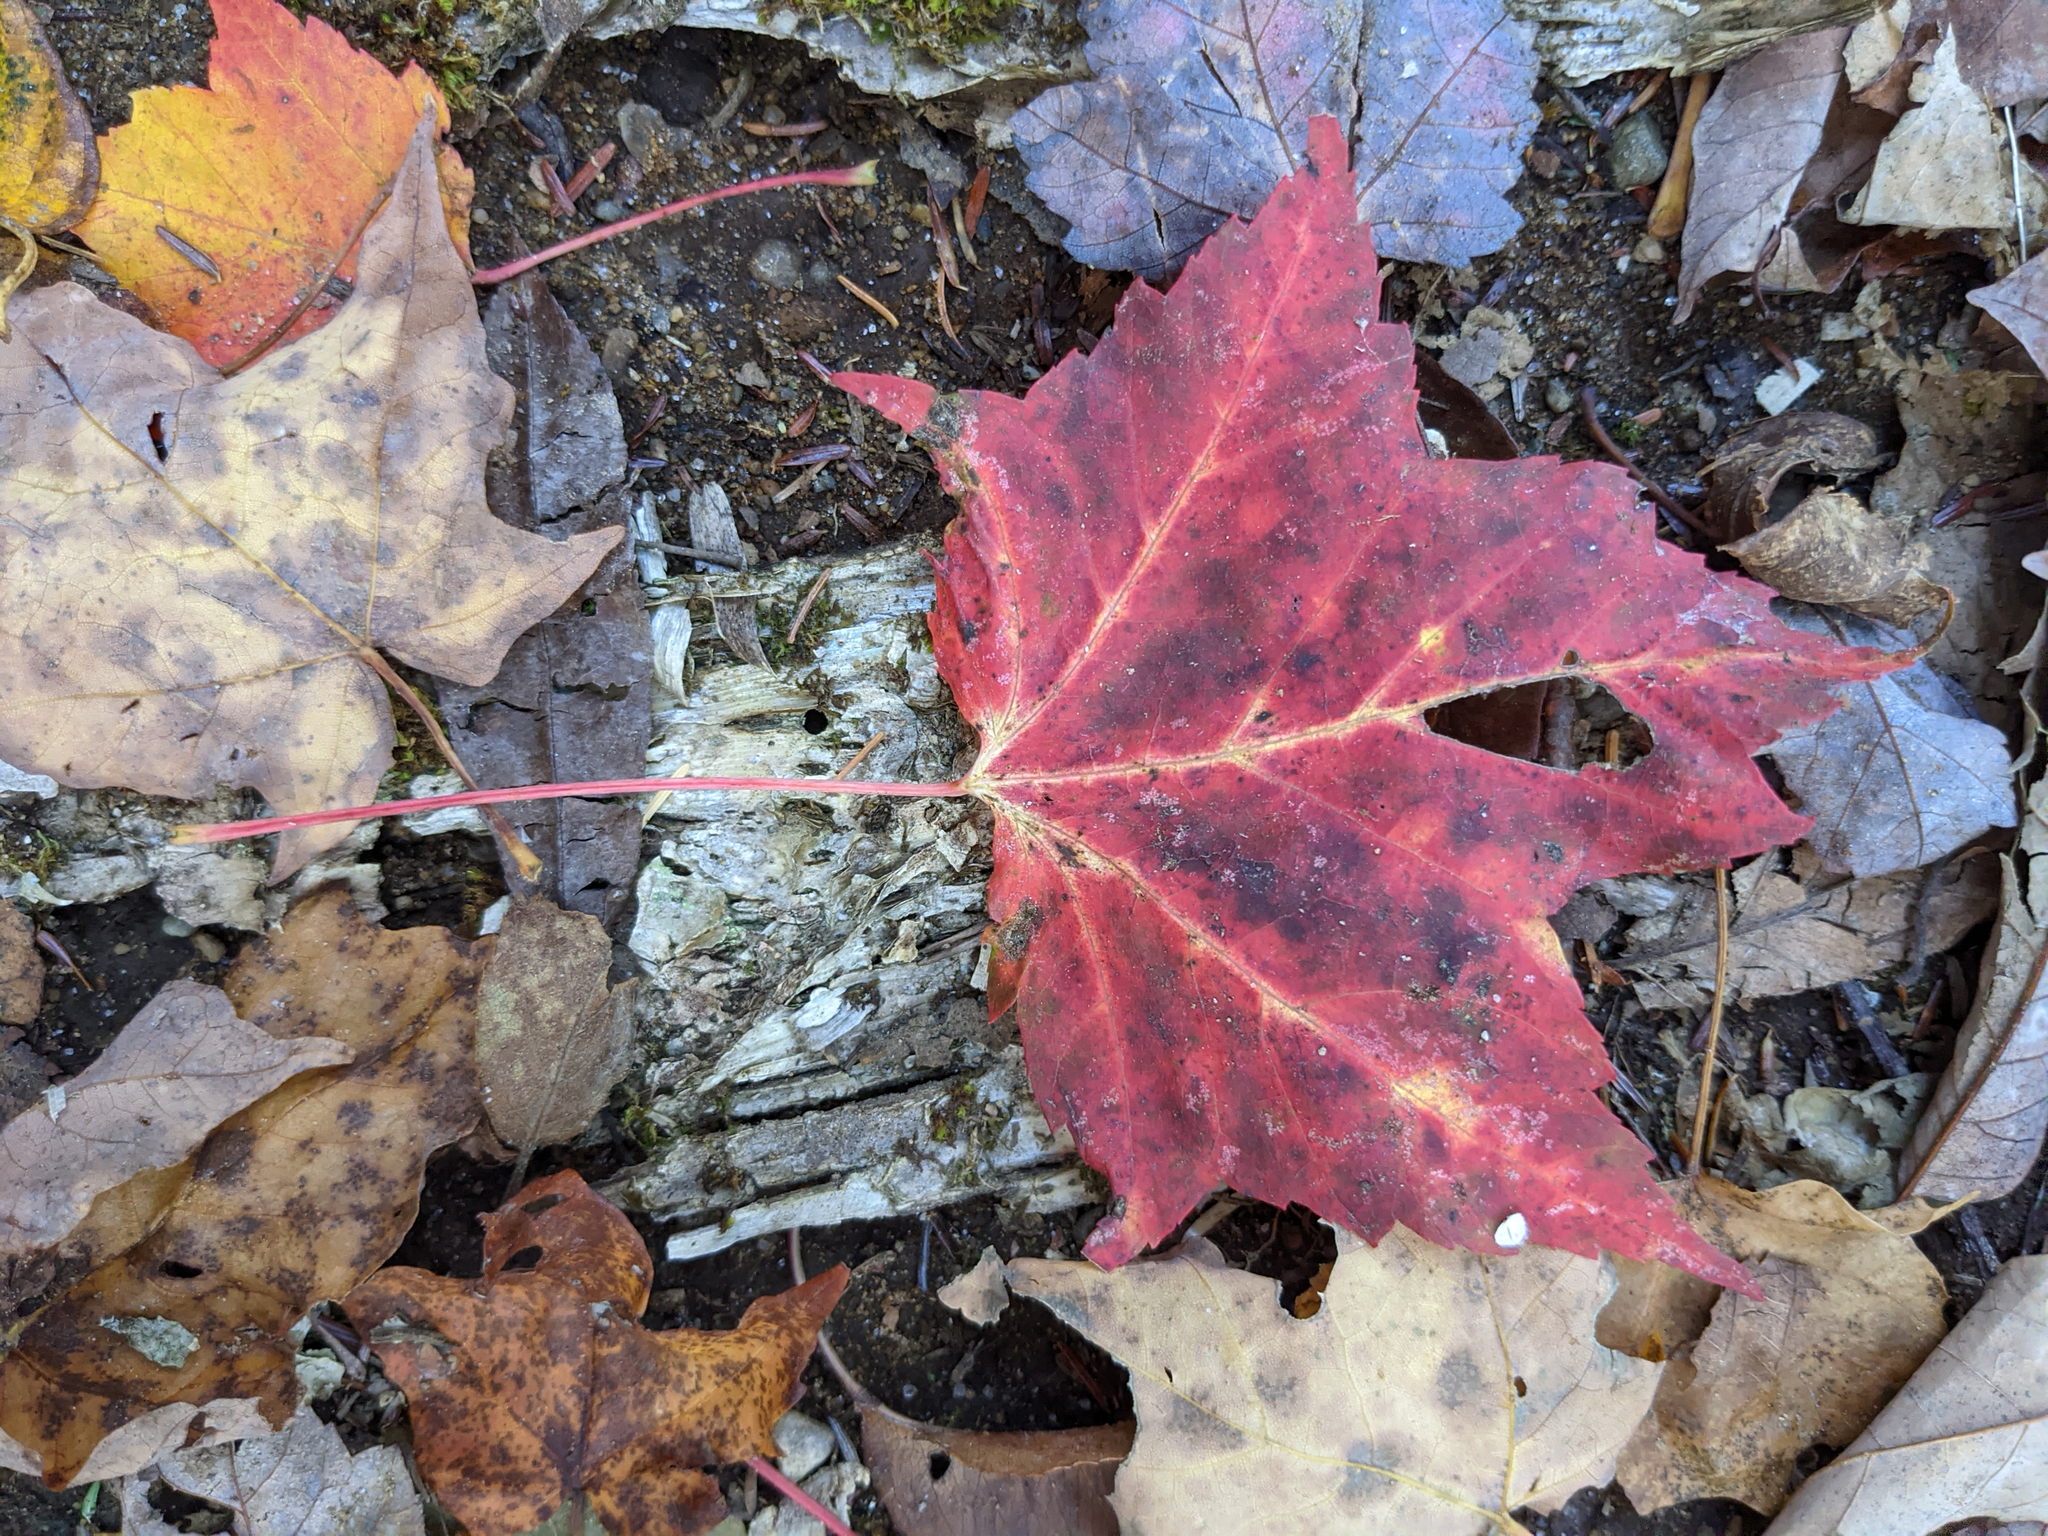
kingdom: Plantae
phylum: Tracheophyta
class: Magnoliopsida
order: Sapindales
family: Sapindaceae
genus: Acer
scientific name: Acer rubrum
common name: Red maple
